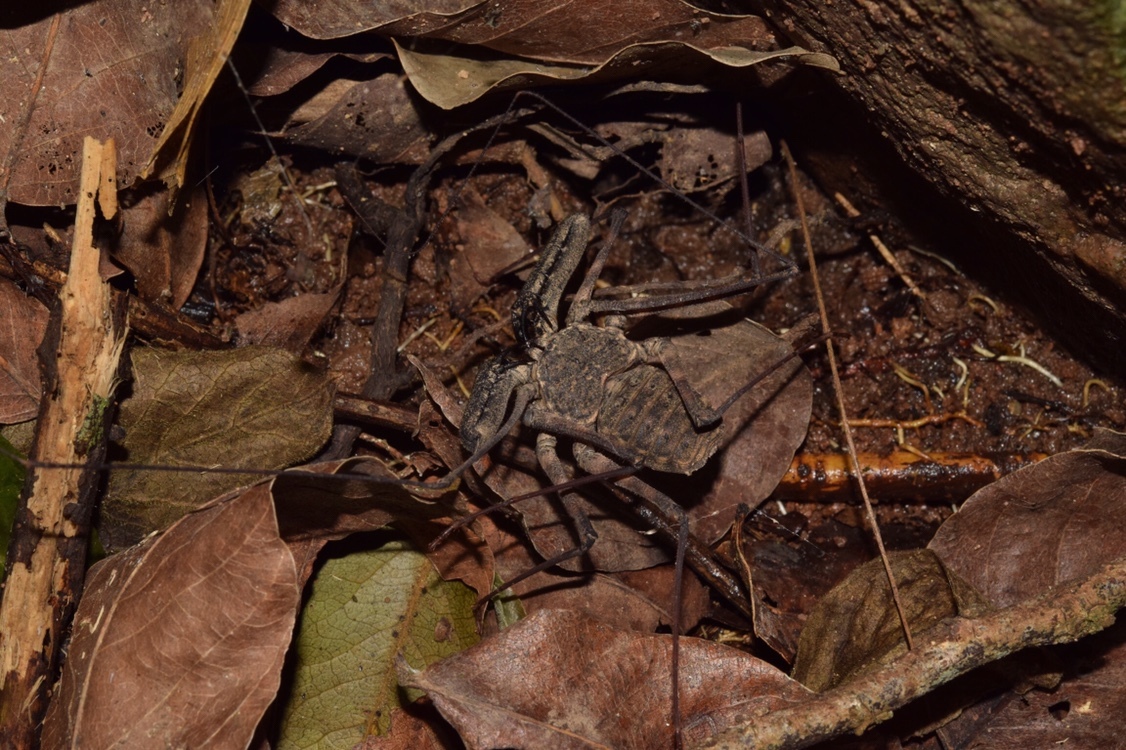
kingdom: Animalia
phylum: Arthropoda
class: Arachnida
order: Amblypygi
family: Phrynichidae
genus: Damon
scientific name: Damon annulatipes
